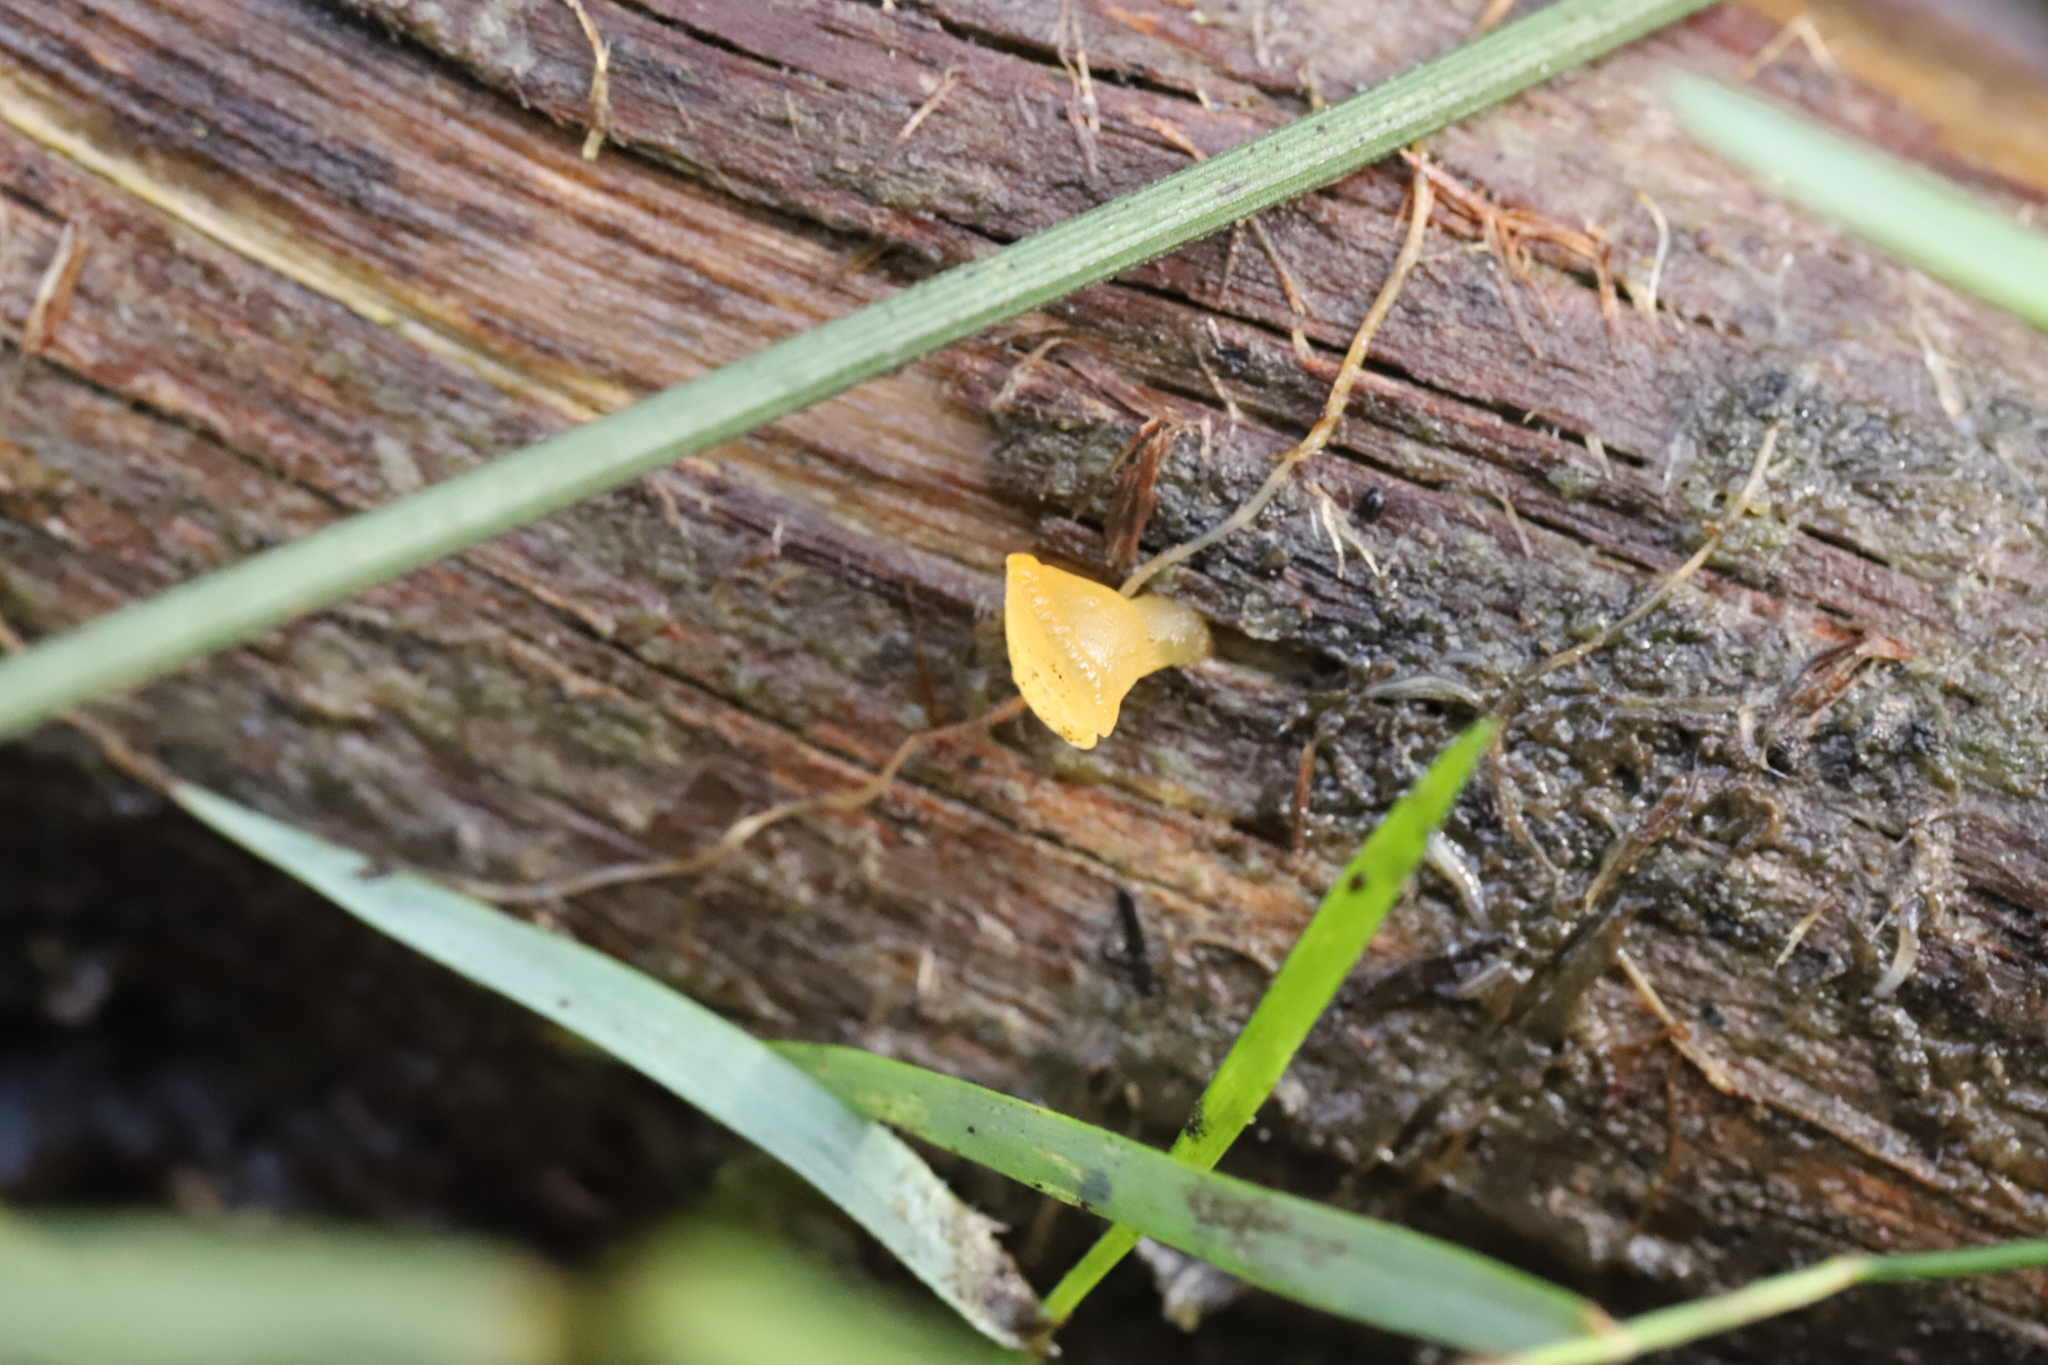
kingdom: Fungi
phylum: Basidiomycota
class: Dacrymycetes
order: Dacrymycetales
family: Dacrymycetaceae
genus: Heterotextus
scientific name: Heterotextus miltinus
